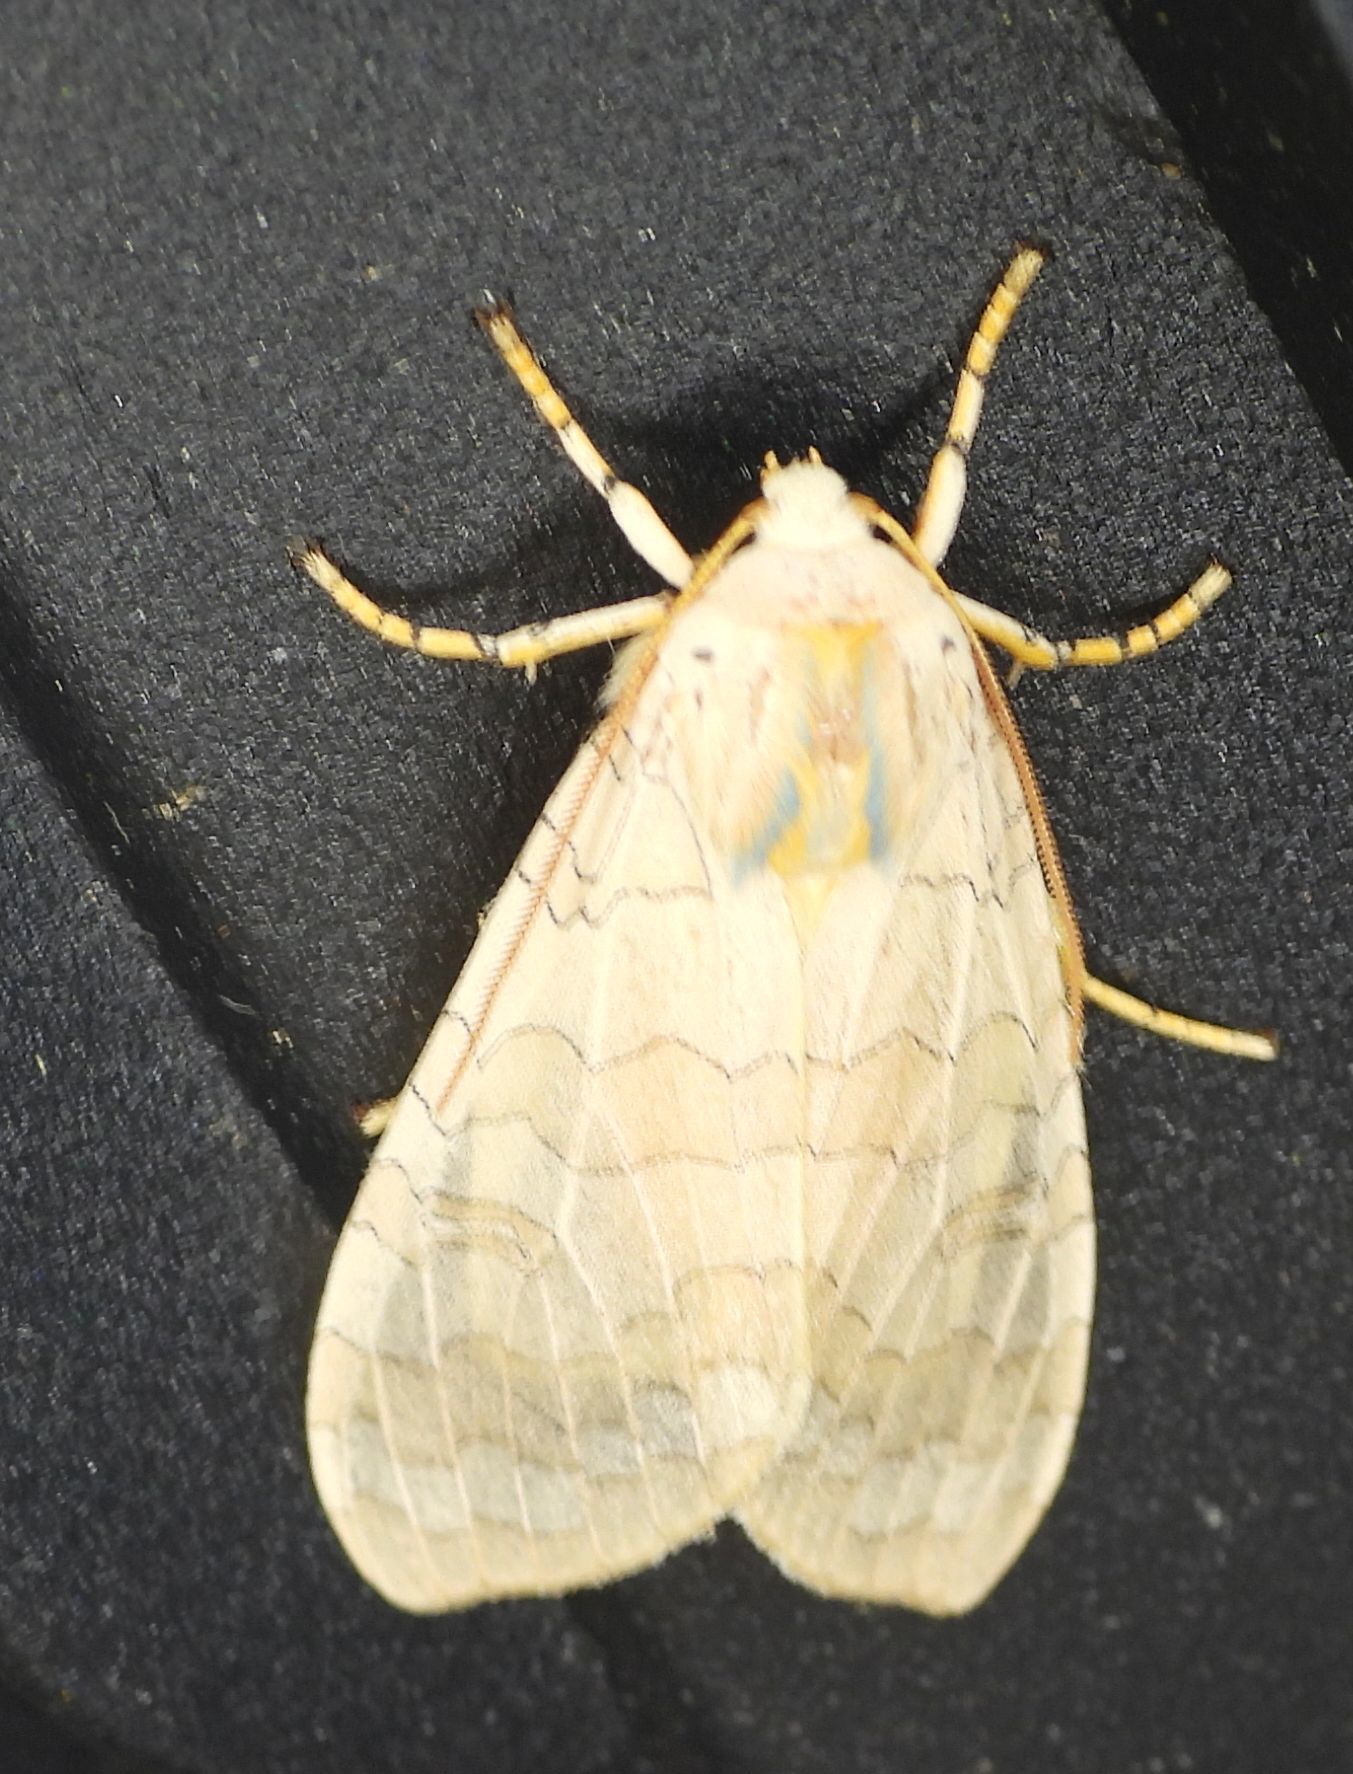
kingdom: Animalia
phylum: Arthropoda
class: Insecta
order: Lepidoptera
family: Erebidae
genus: Halysidota
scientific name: Halysidota tessellaris
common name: Banded tussock moth
